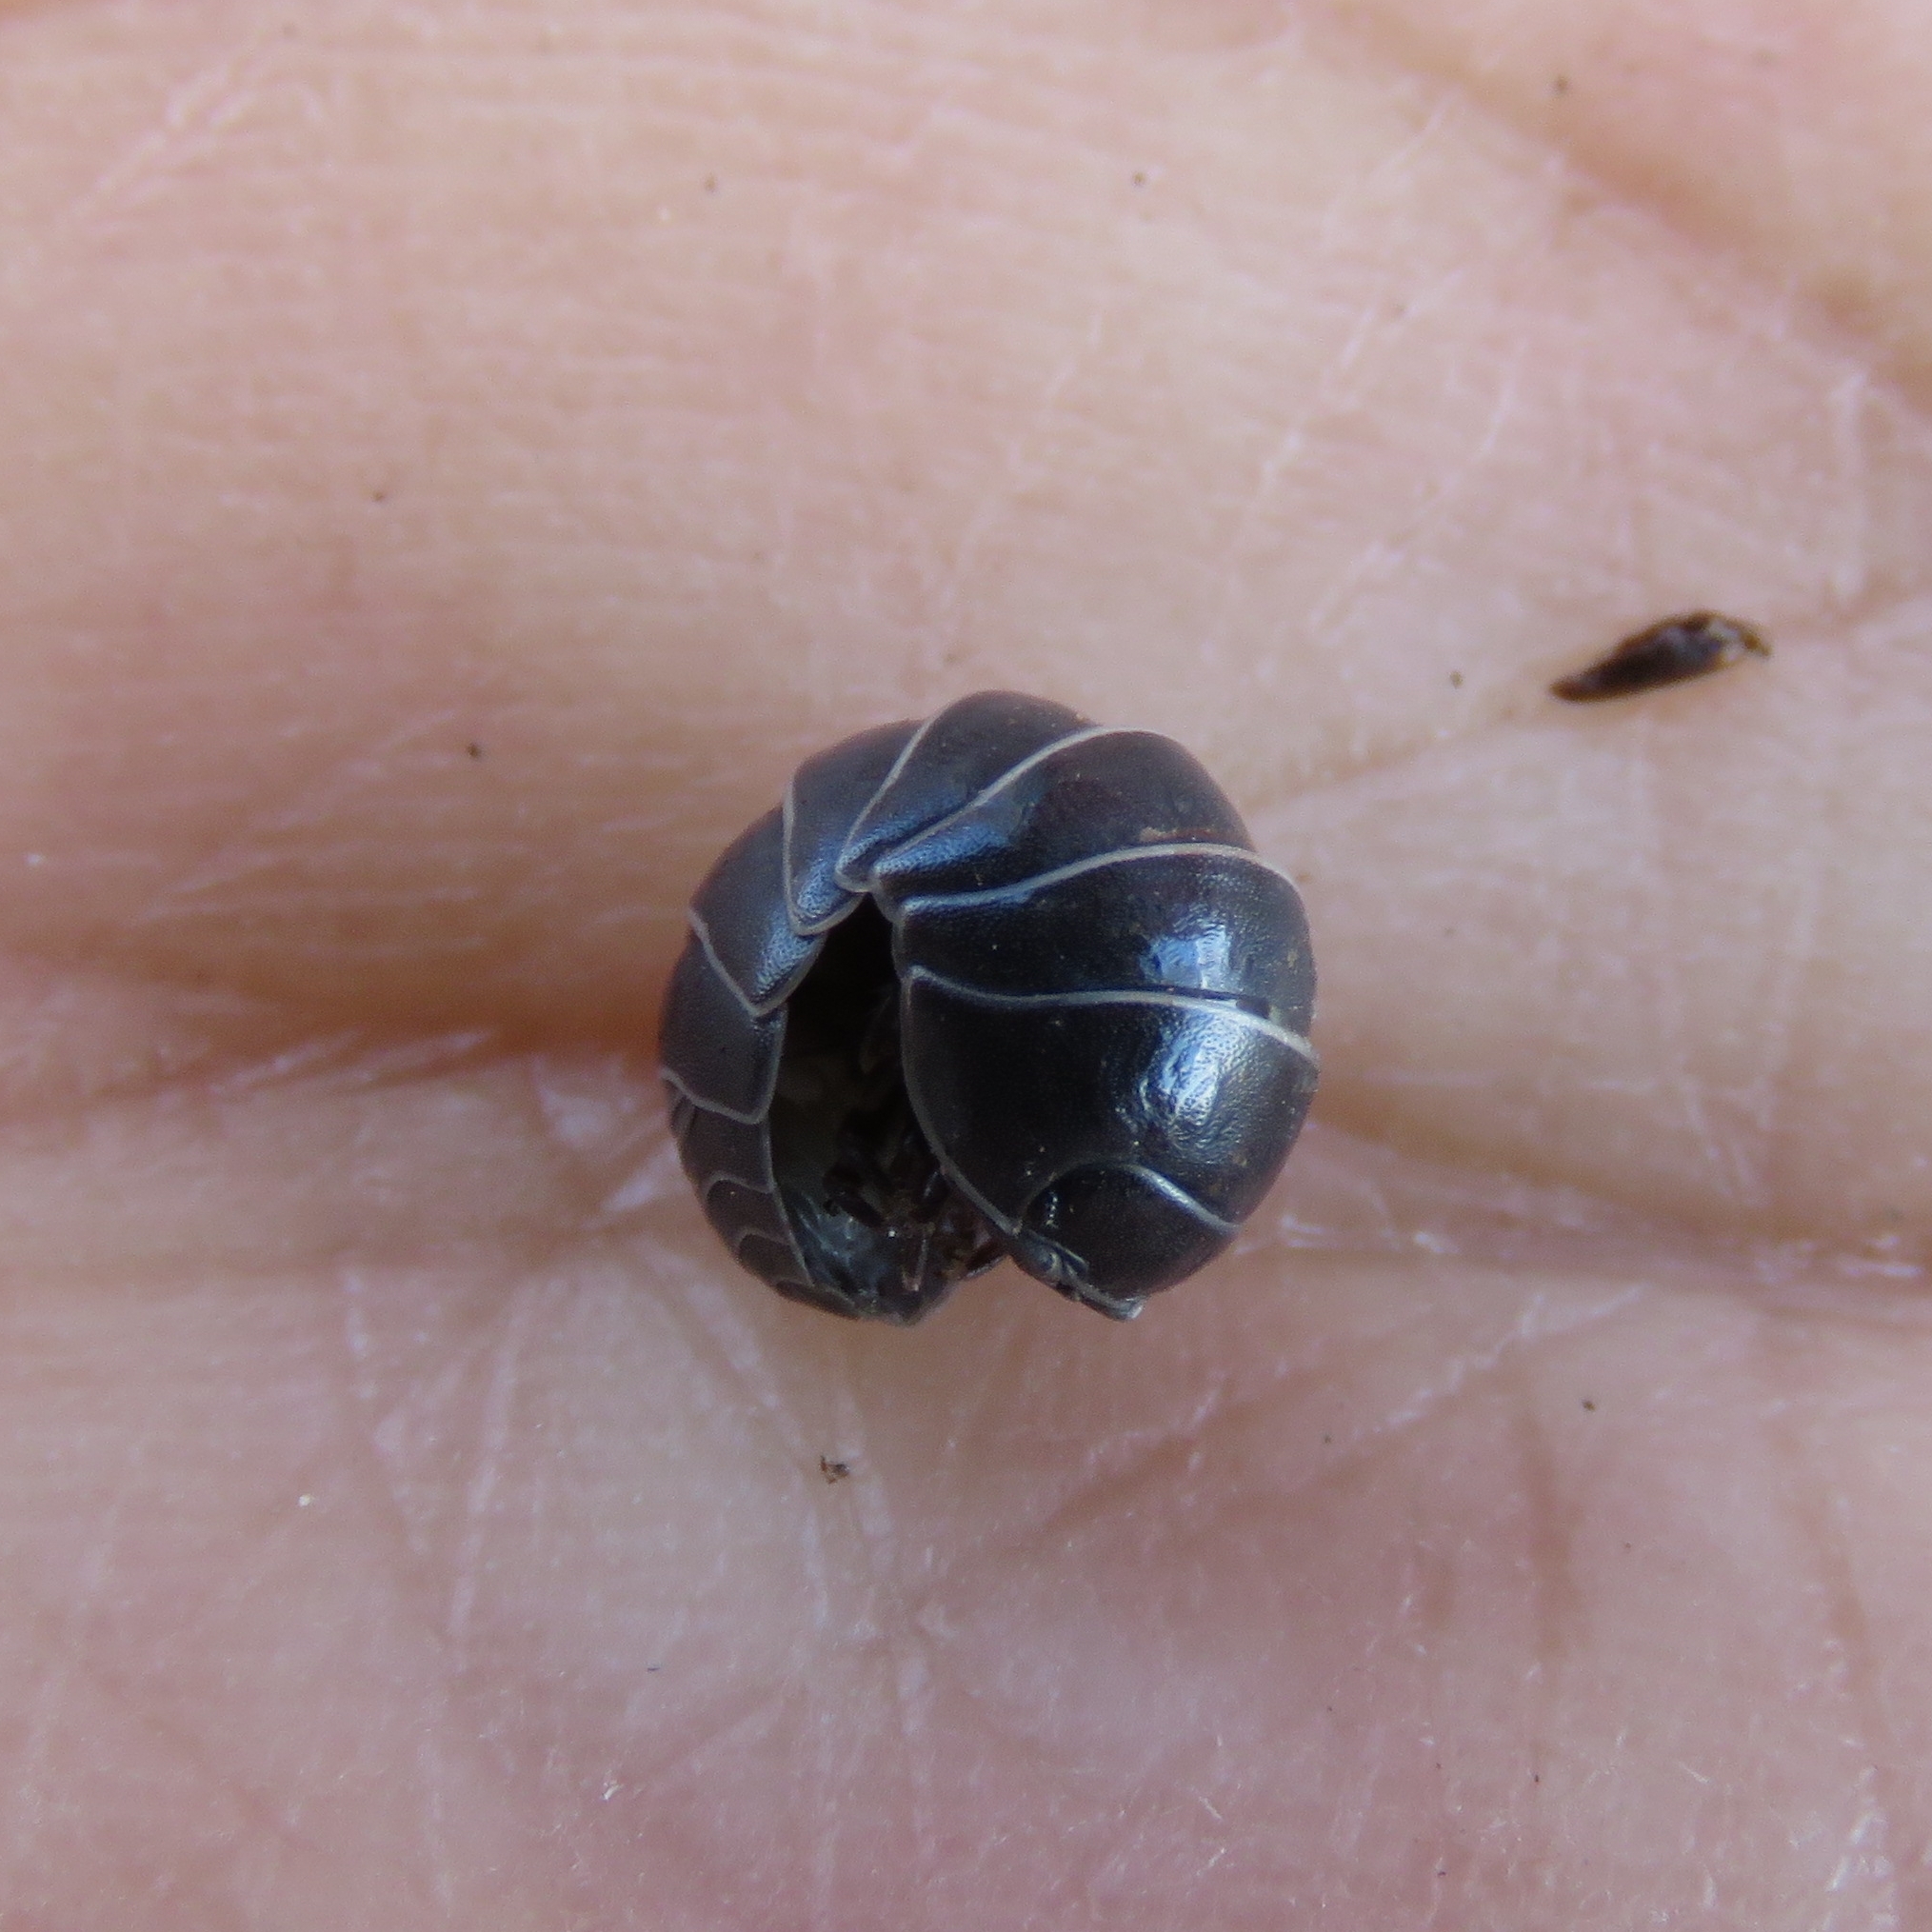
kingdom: Animalia
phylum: Arthropoda
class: Malacostraca
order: Isopoda
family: Armadillidiidae
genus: Armadillidium
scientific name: Armadillidium vulgare
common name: Common pill woodlouse
